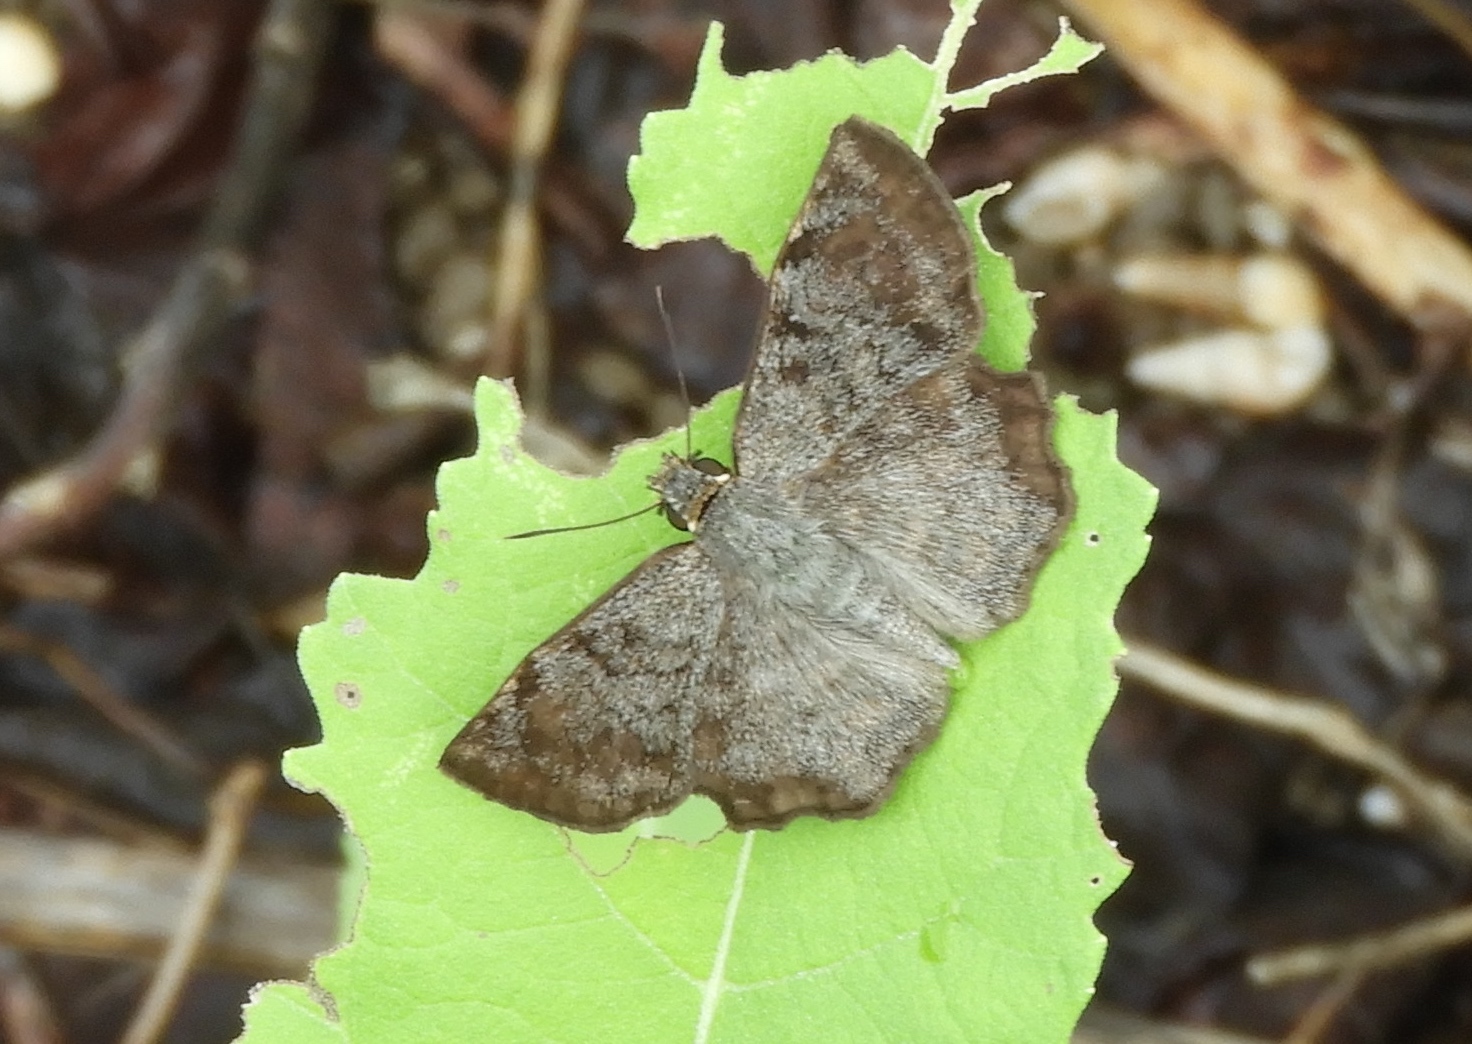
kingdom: Animalia
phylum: Arthropoda
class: Insecta
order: Lepidoptera
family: Hesperiidae
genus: Antigonus
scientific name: Antigonus erosus
